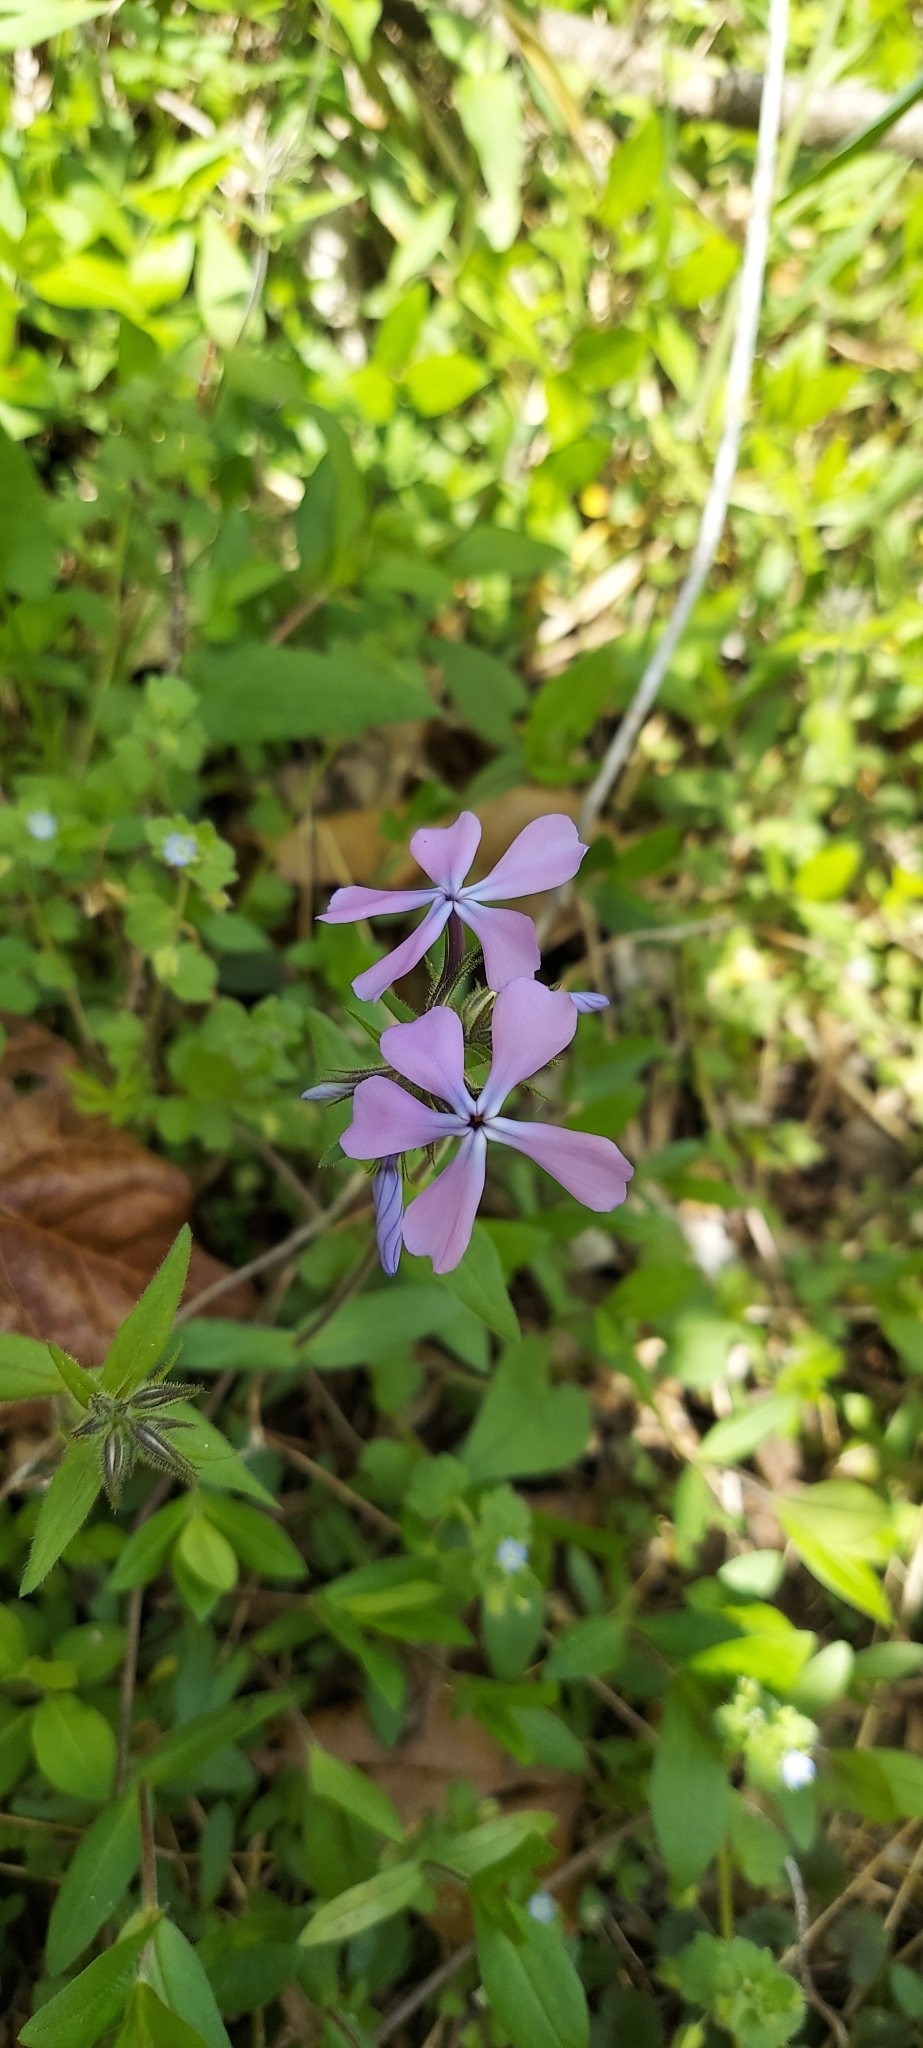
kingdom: Plantae
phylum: Tracheophyta
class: Magnoliopsida
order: Ericales
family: Polemoniaceae
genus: Phlox
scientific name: Phlox divaricata
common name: Blue phlox
